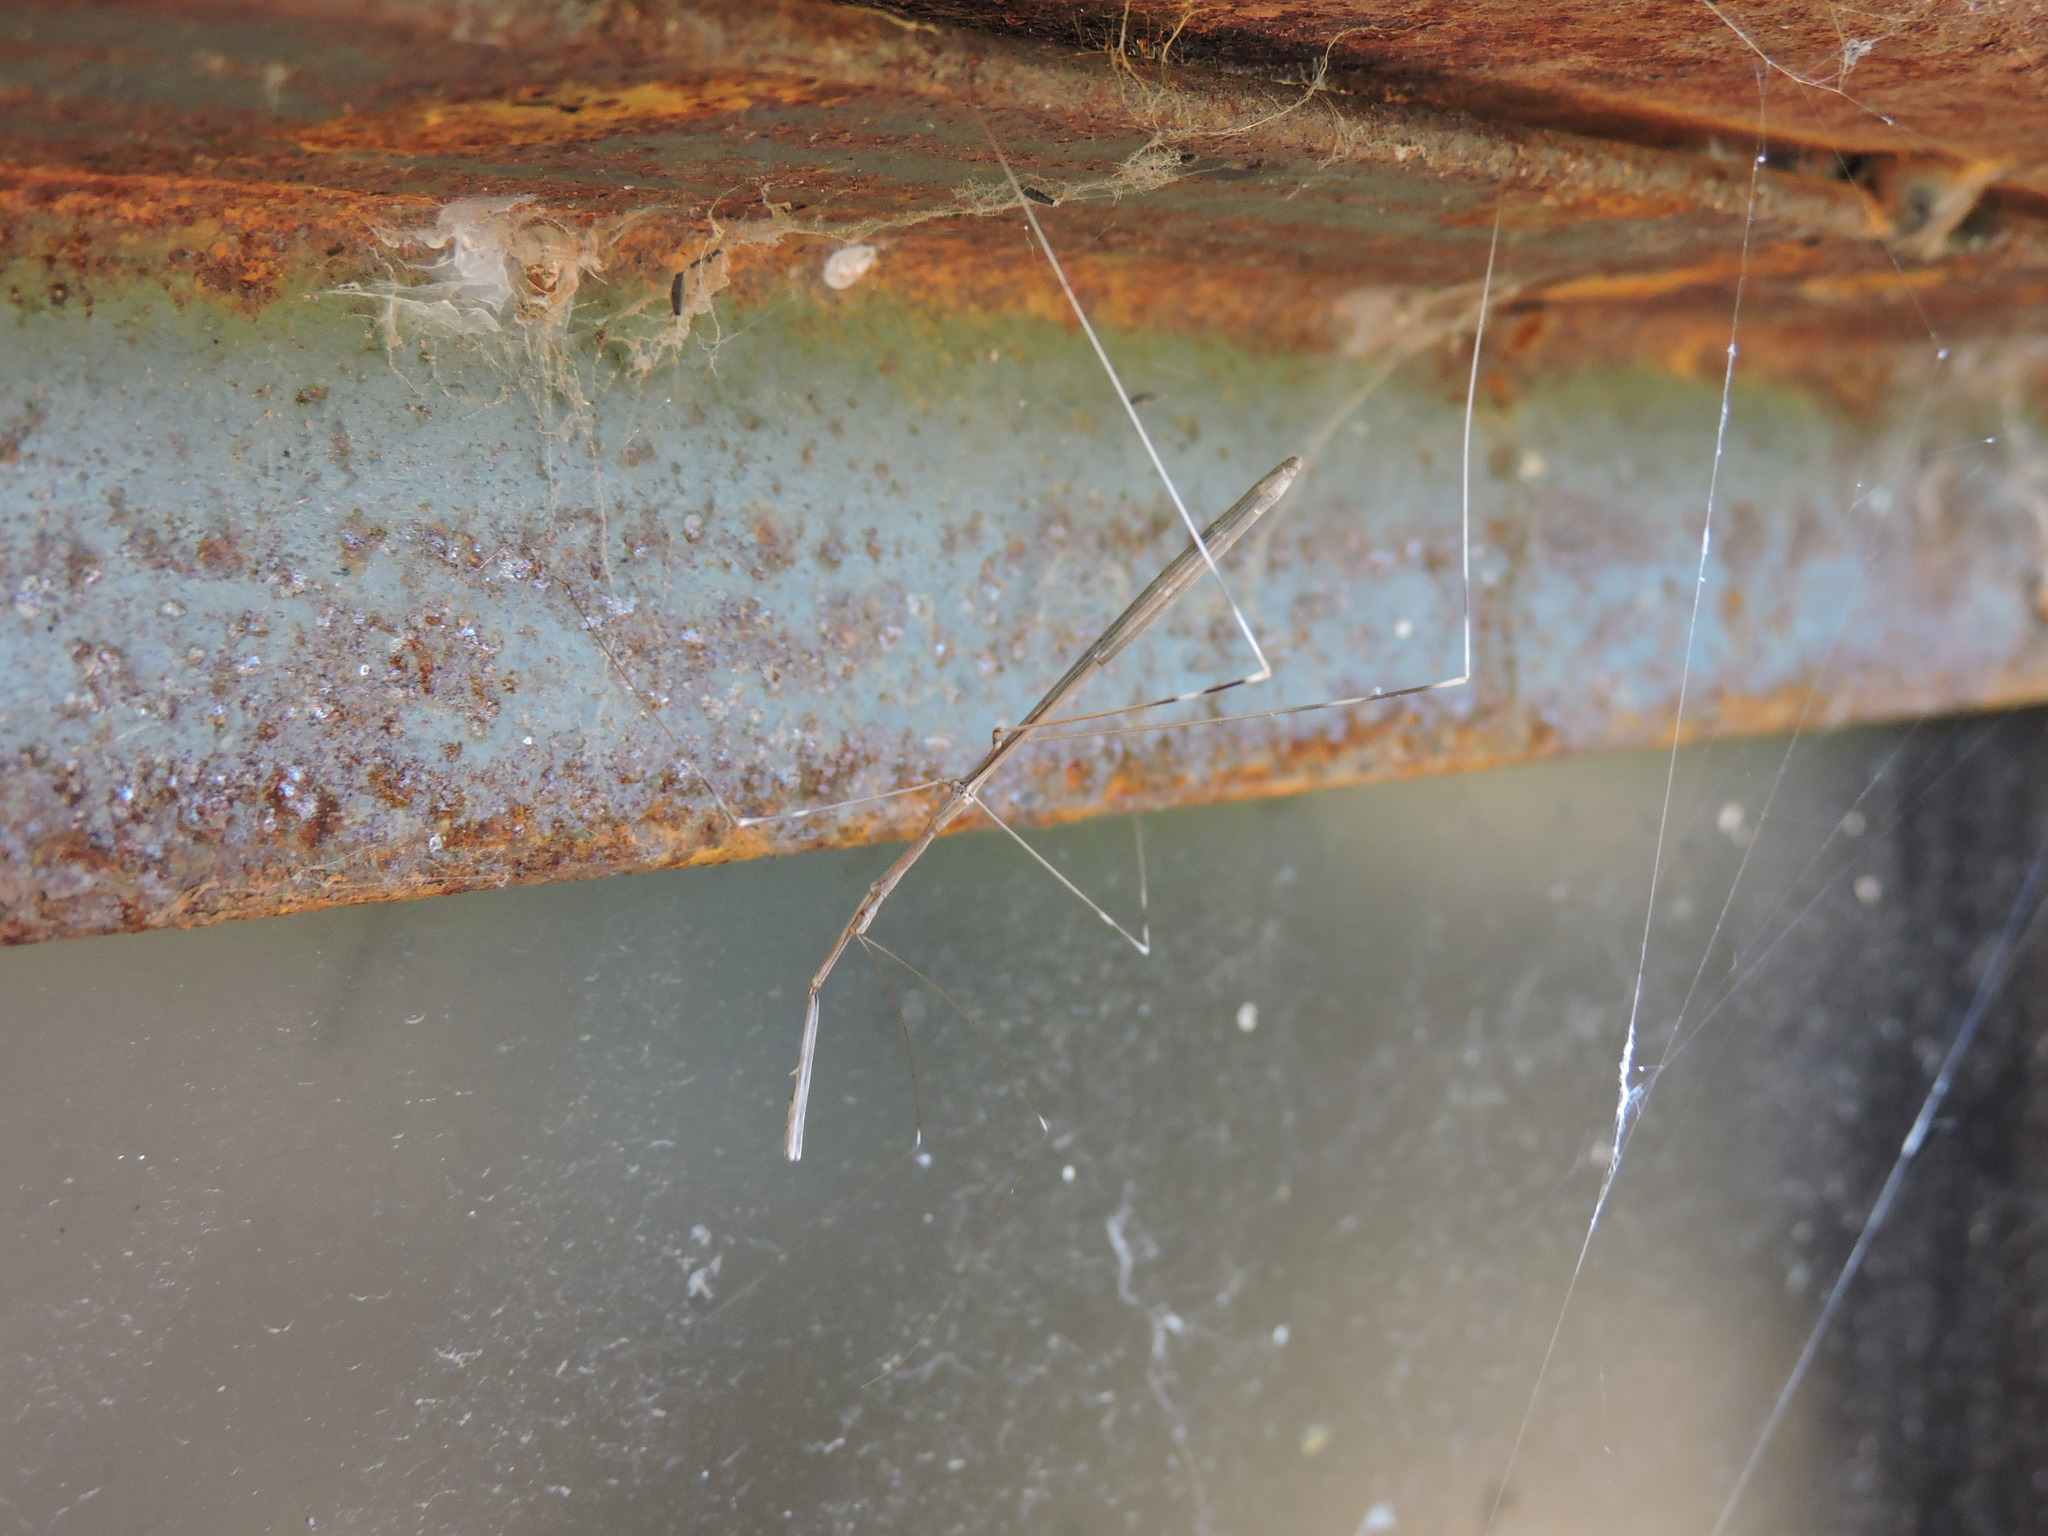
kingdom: Animalia
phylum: Arthropoda
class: Insecta
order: Hemiptera
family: Reduviidae
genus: Emesaya
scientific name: Emesaya brevipennis
